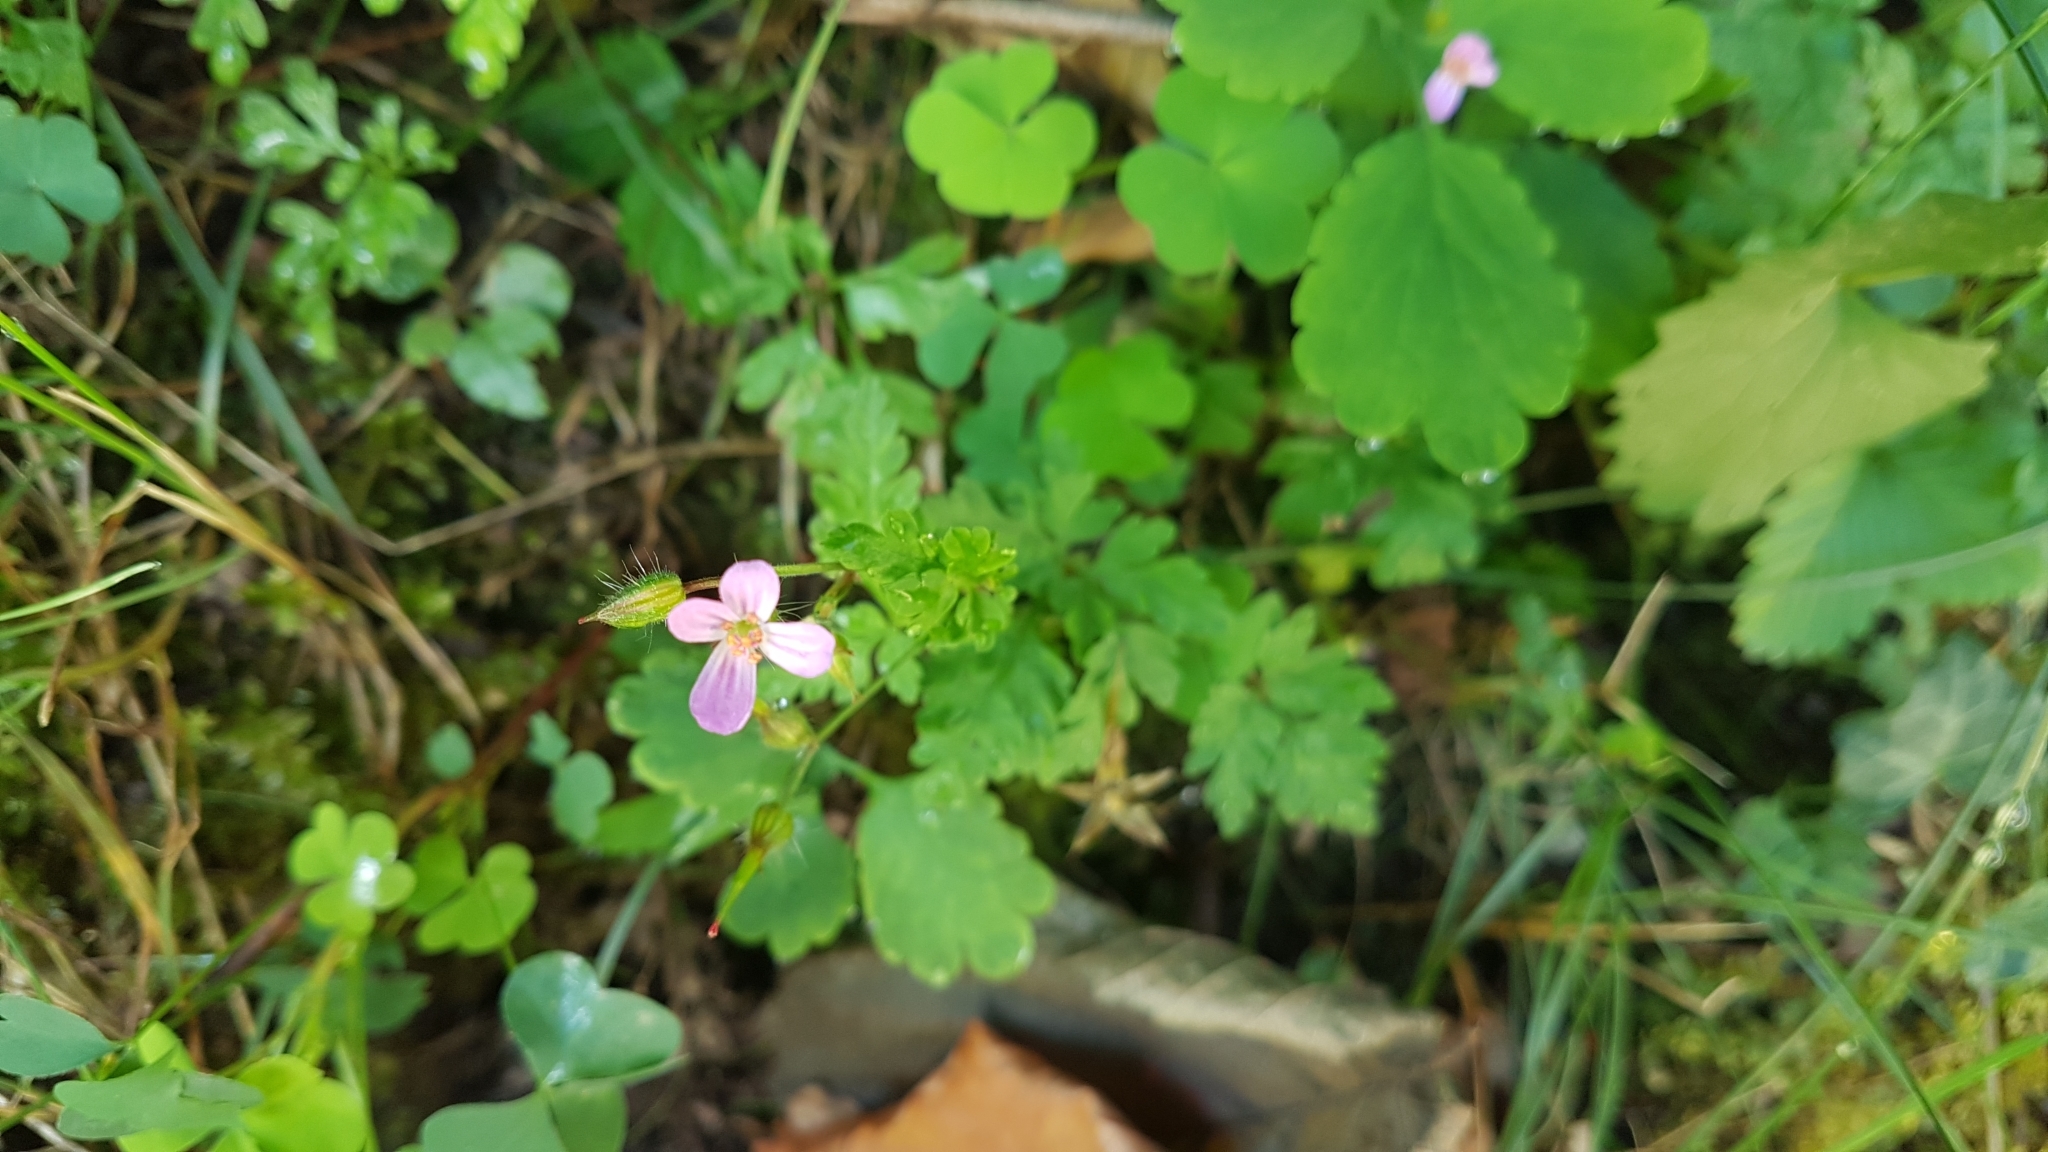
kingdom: Plantae
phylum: Tracheophyta
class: Magnoliopsida
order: Geraniales
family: Geraniaceae
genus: Geranium
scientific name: Geranium robertianum
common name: Herb-robert
